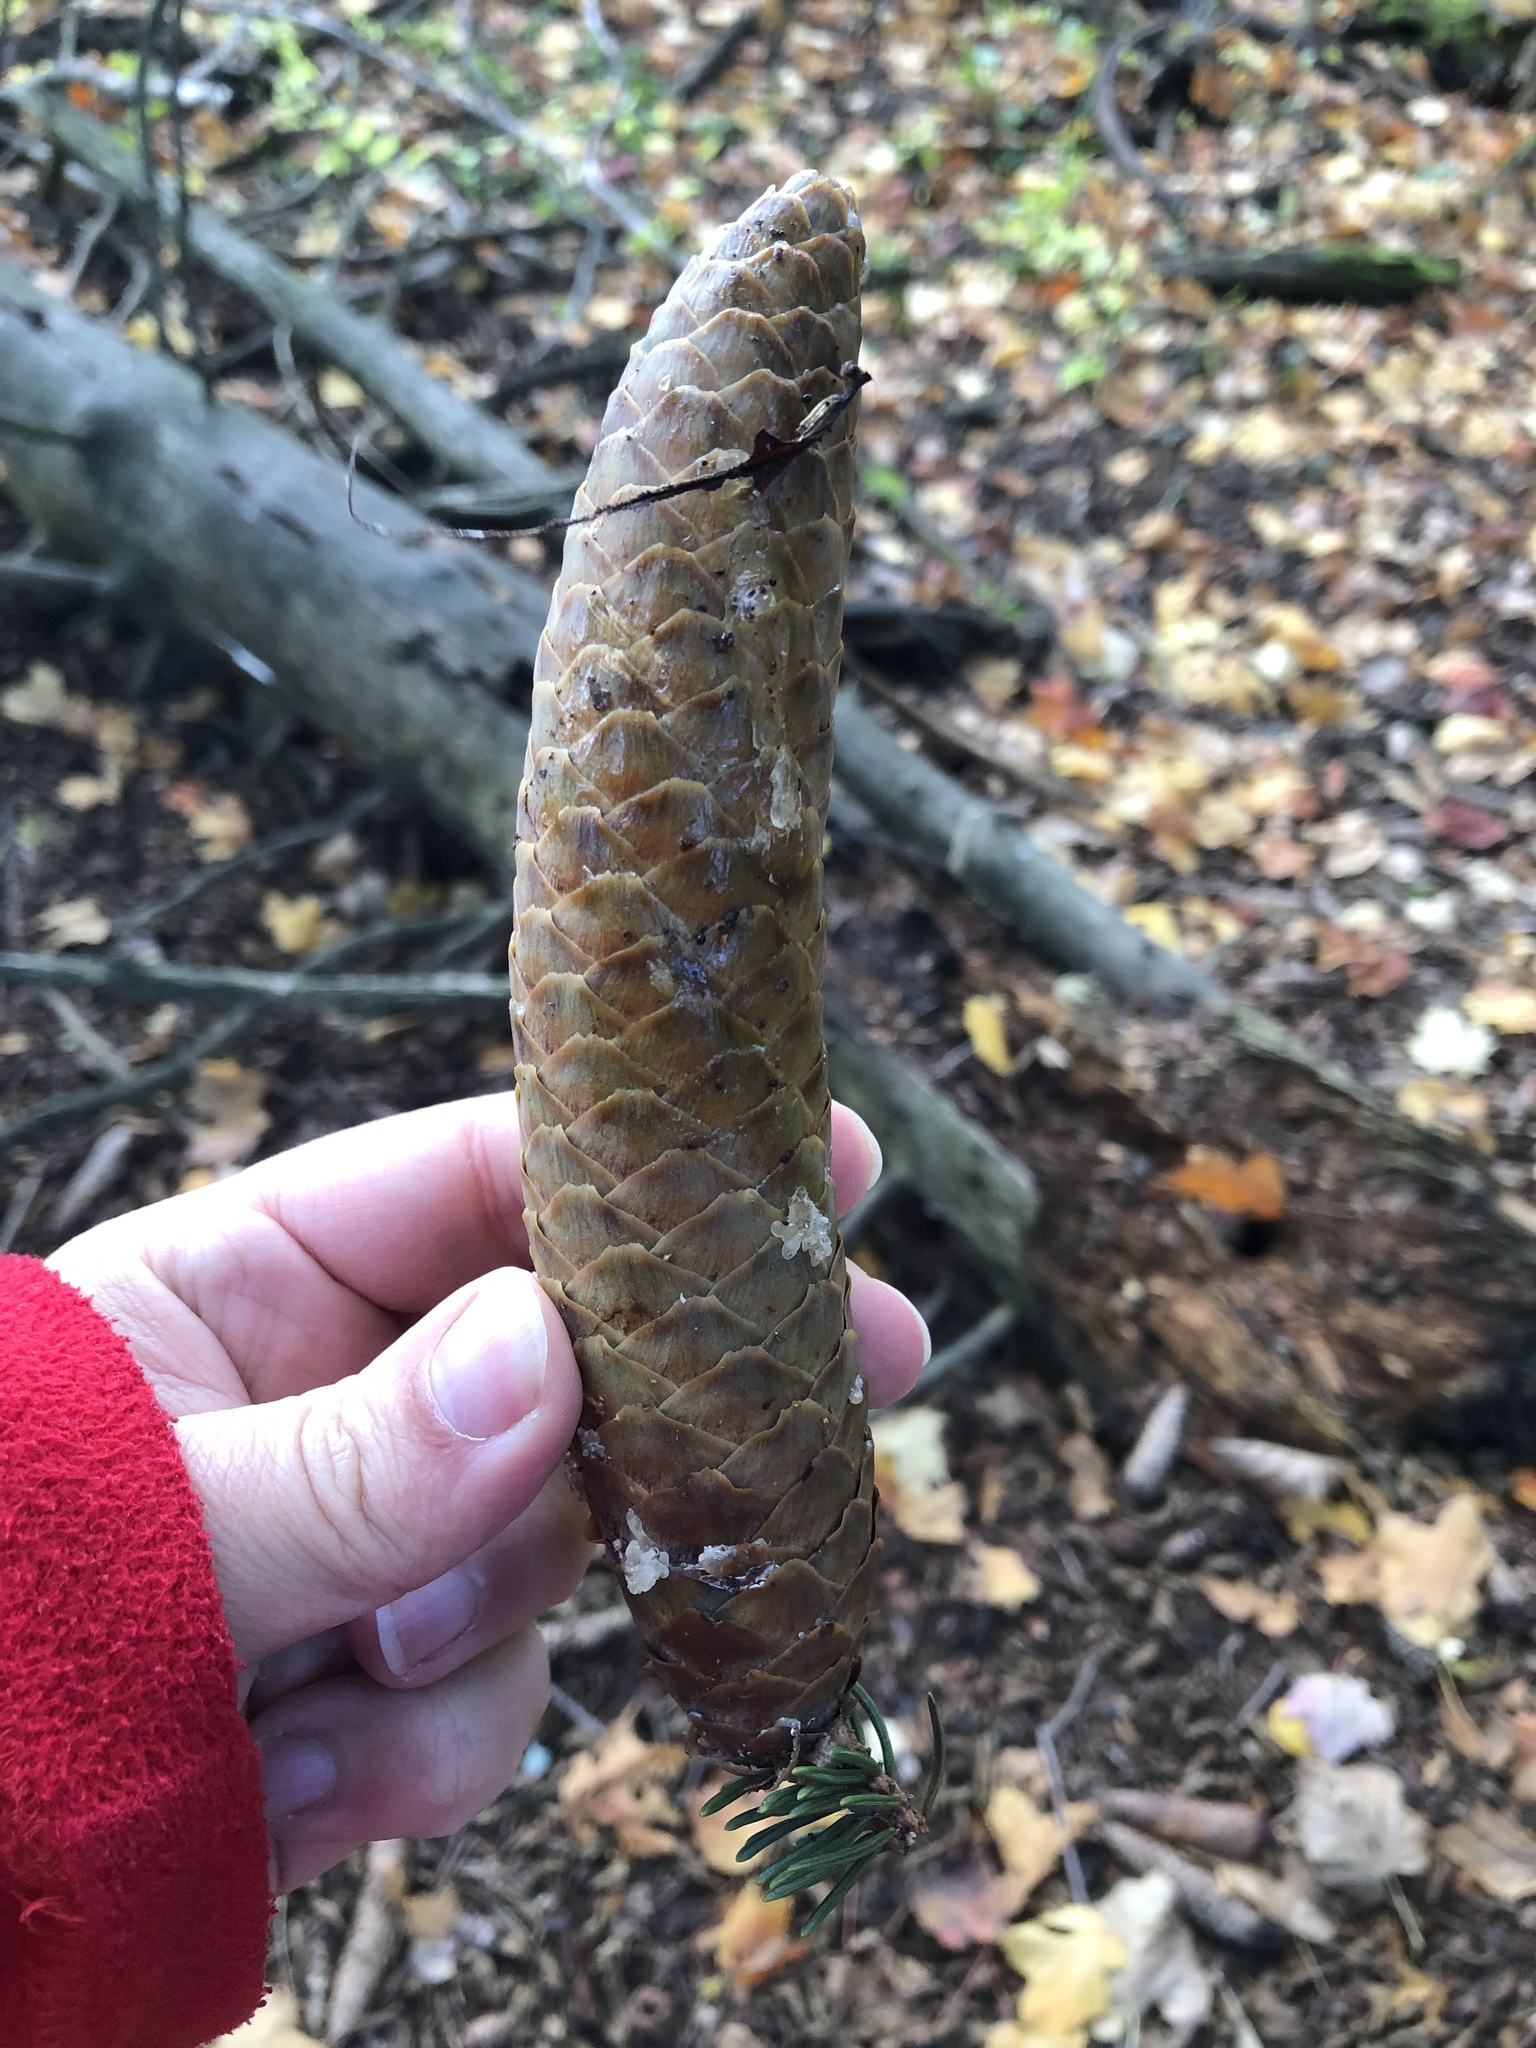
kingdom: Plantae
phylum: Tracheophyta
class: Pinopsida
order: Pinales
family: Pinaceae
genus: Picea
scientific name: Picea abies
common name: Norway spruce
